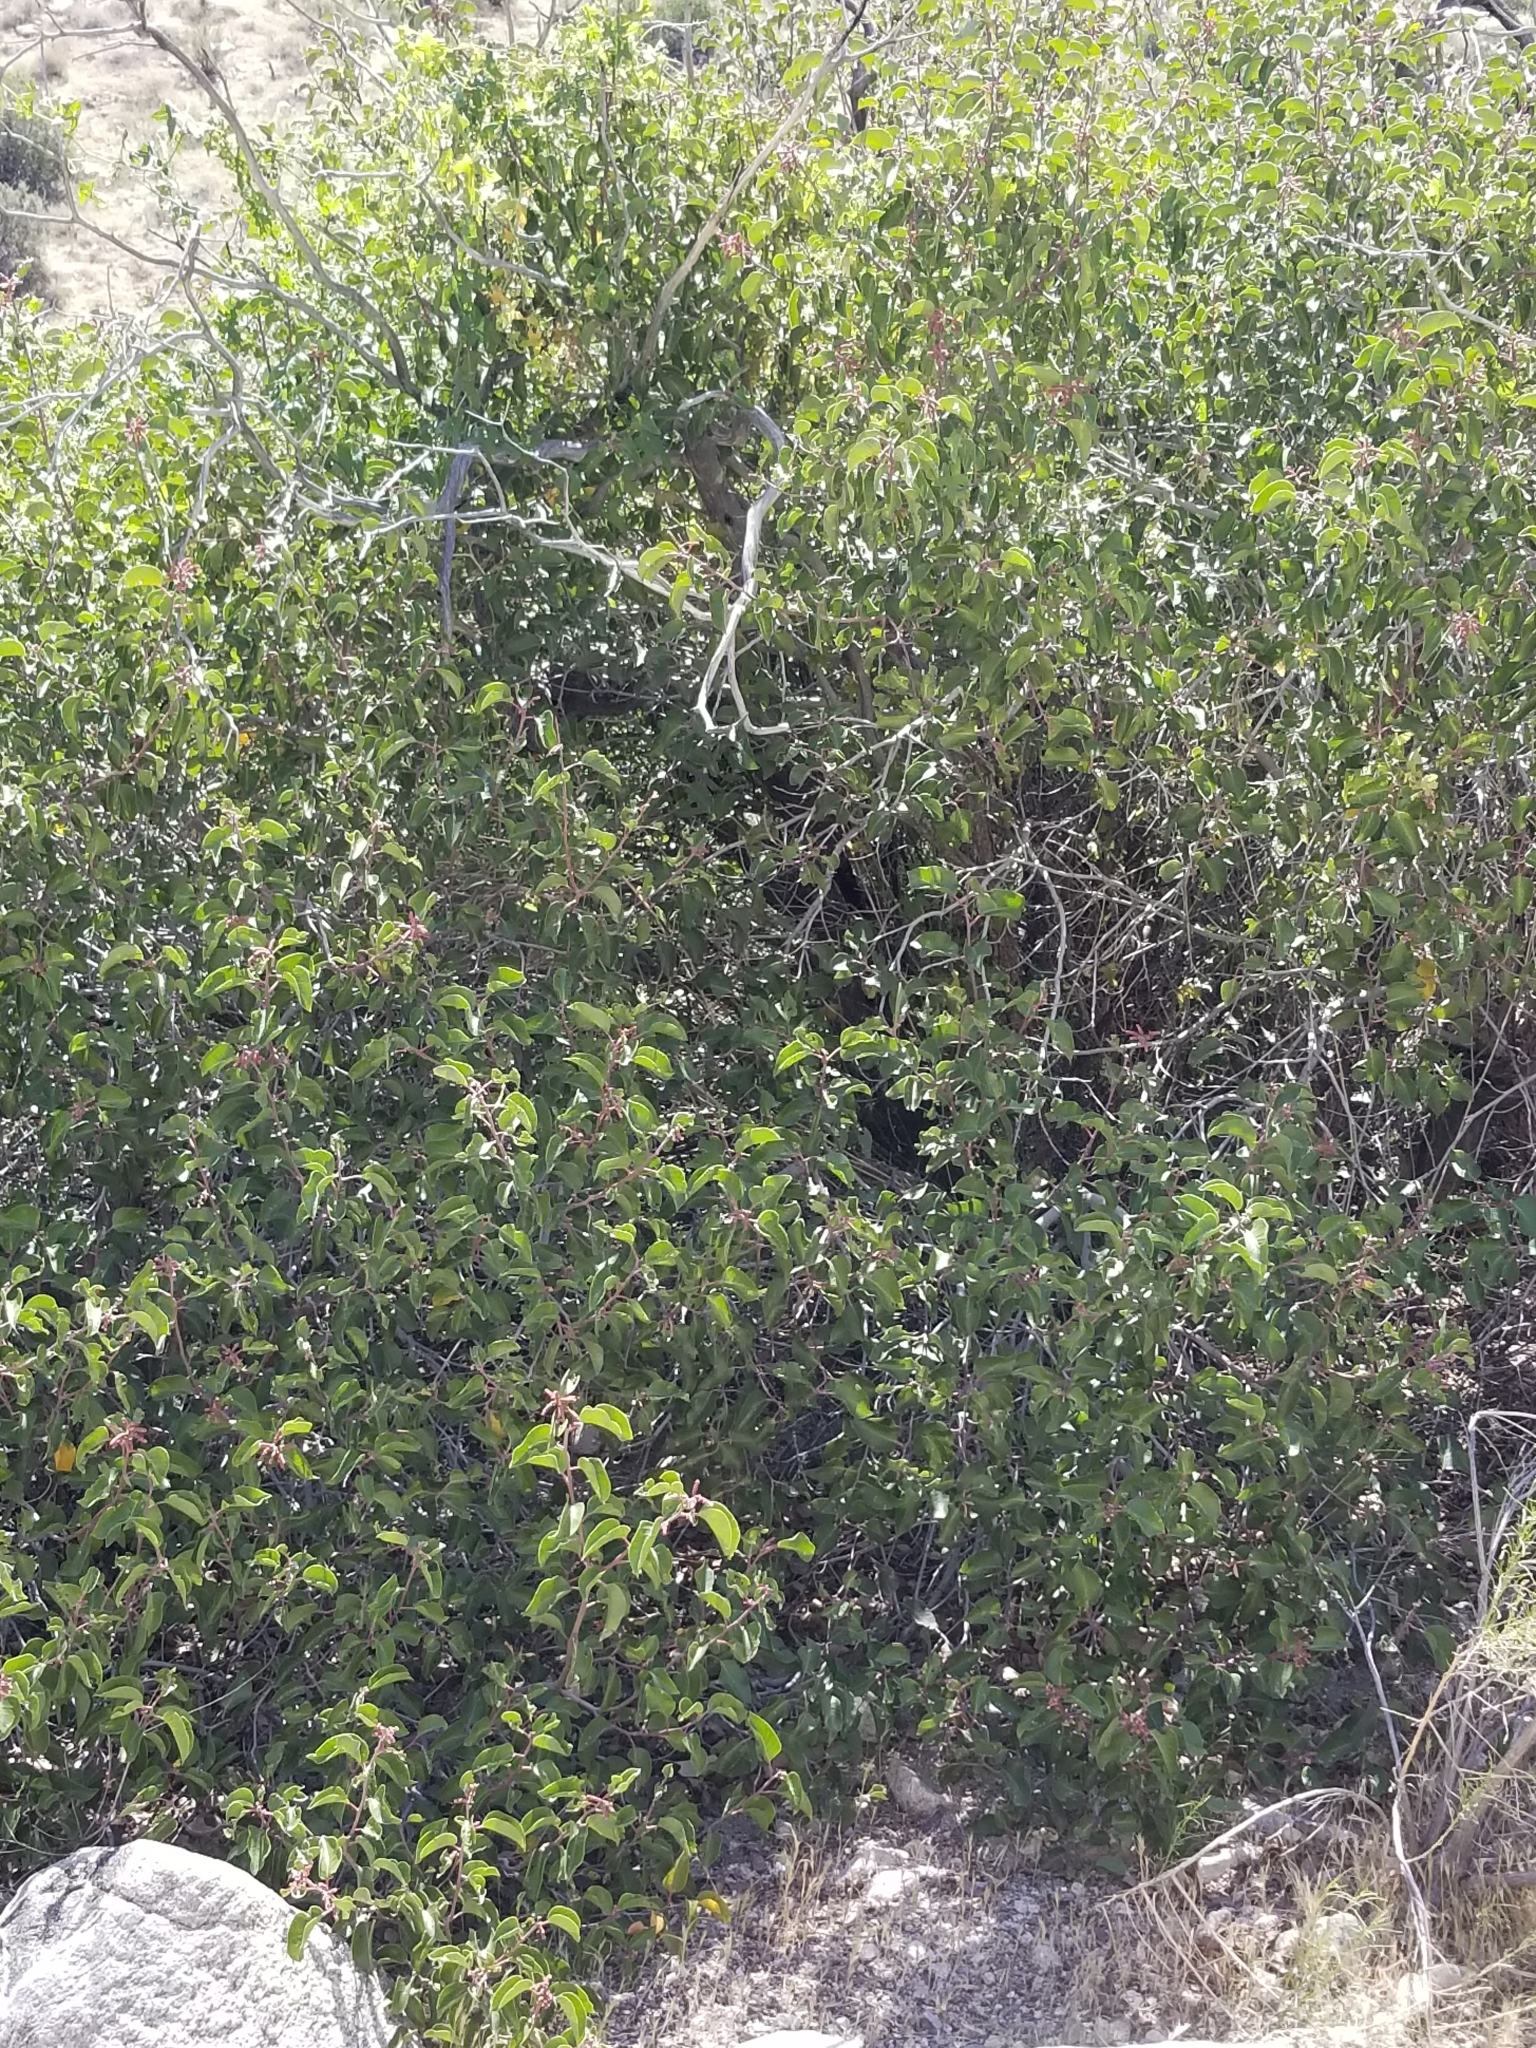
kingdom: Plantae
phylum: Tracheophyta
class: Magnoliopsida
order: Sapindales
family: Anacardiaceae
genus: Rhus
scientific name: Rhus ovata
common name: Sugar sumac
